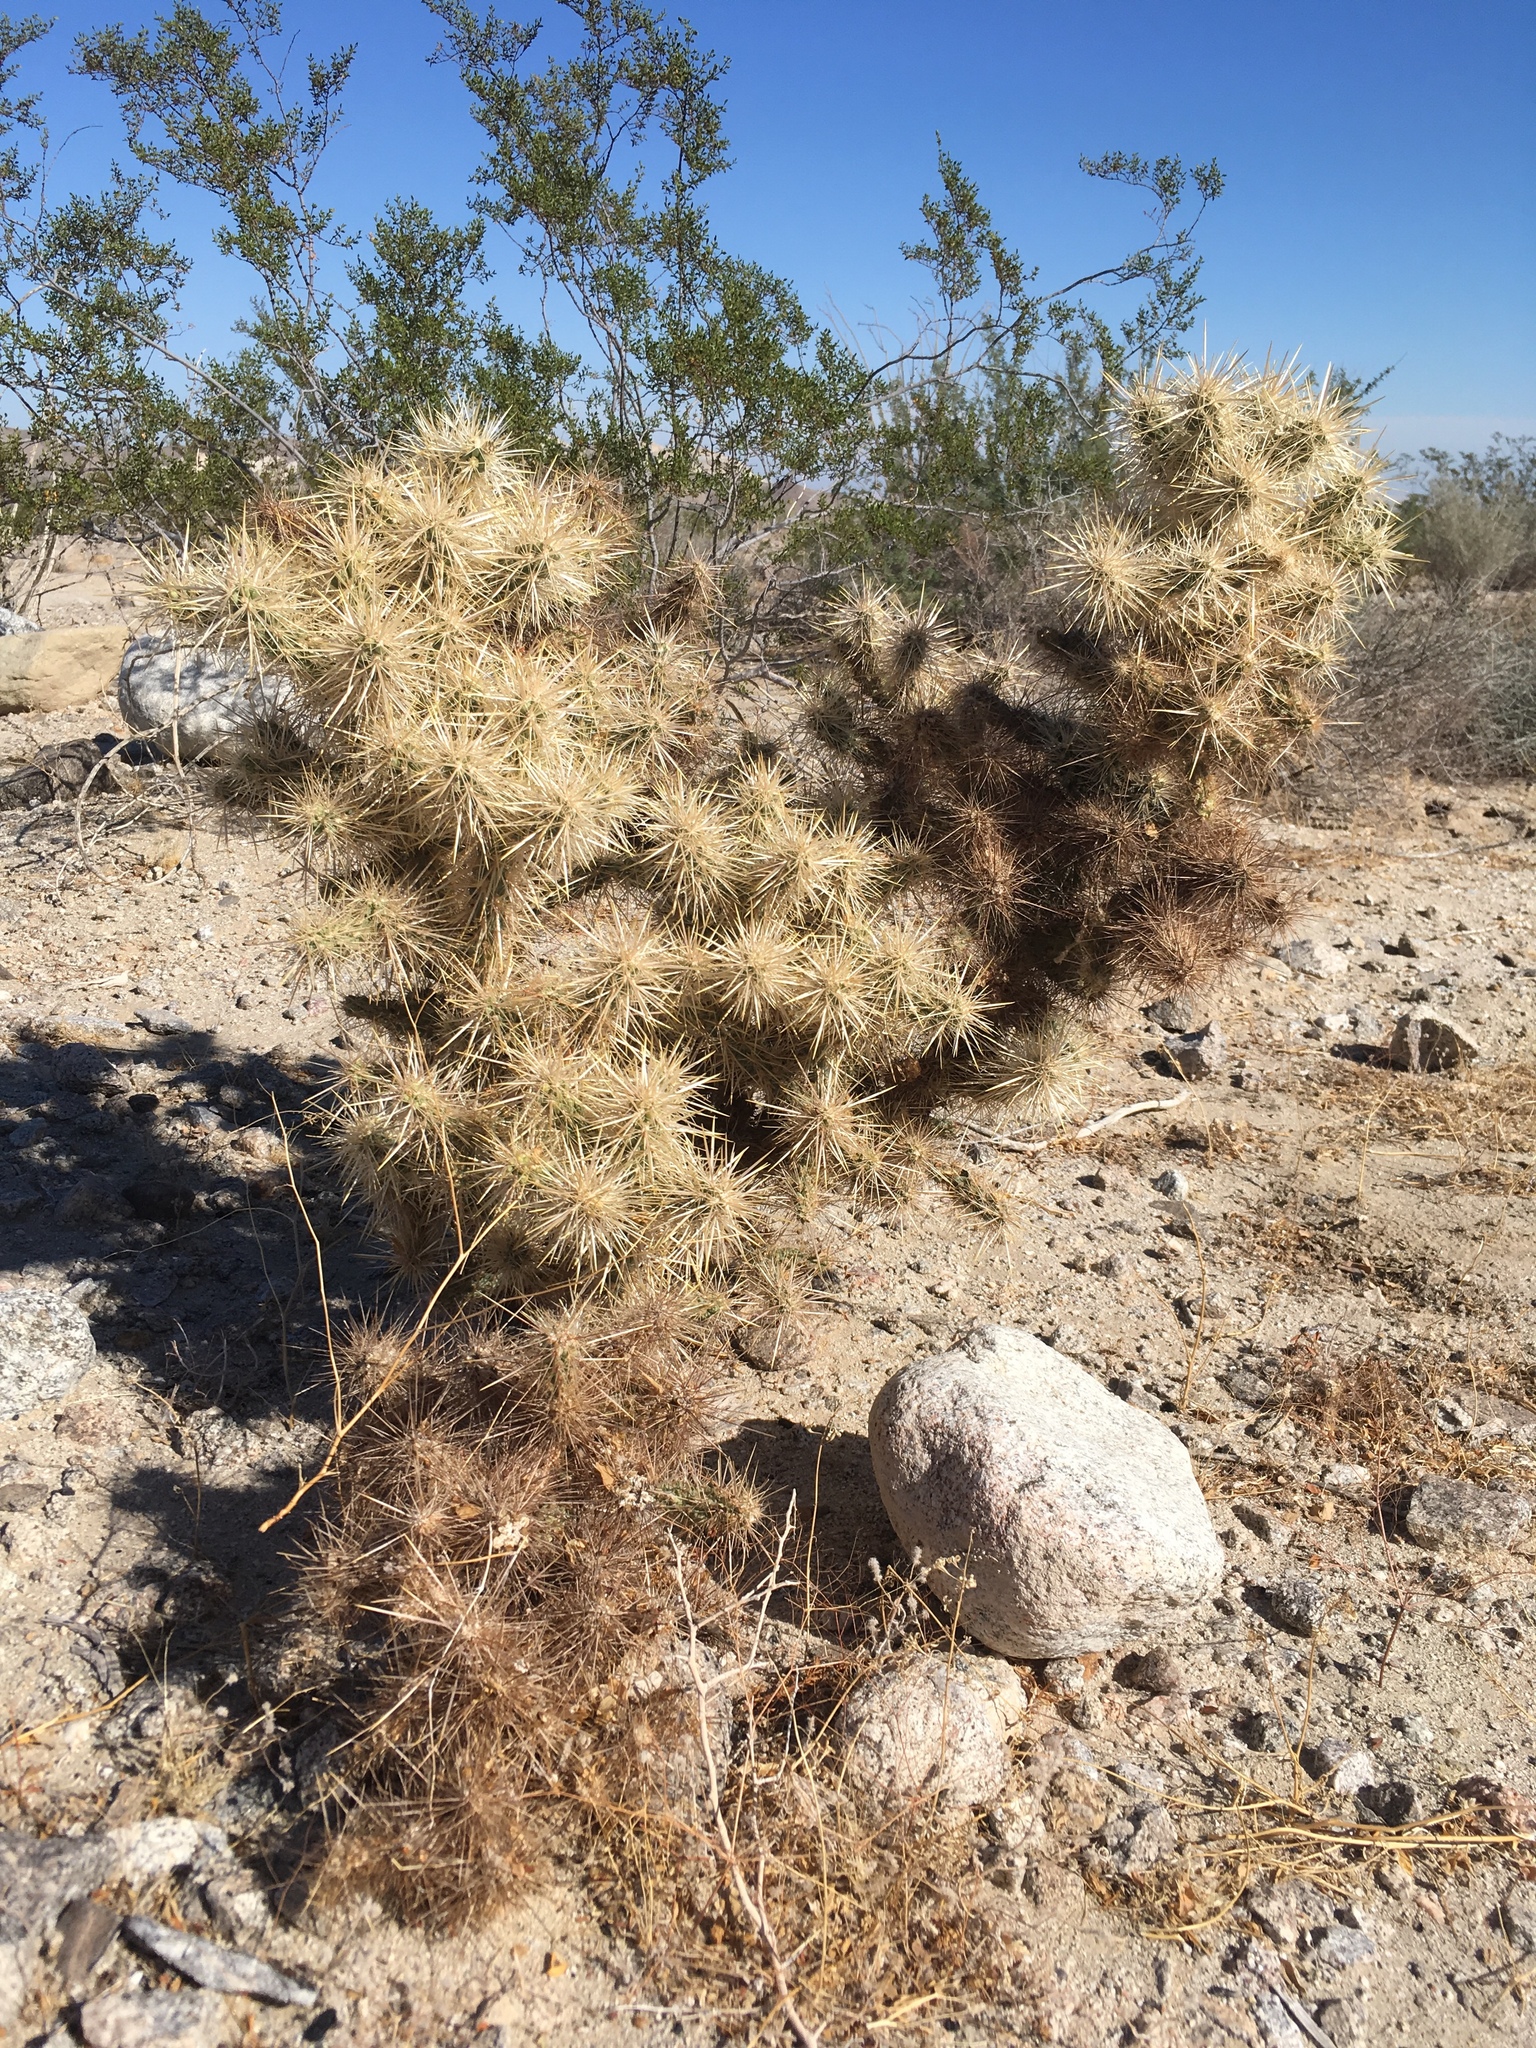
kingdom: Plantae
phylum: Tracheophyta
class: Magnoliopsida
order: Caryophyllales
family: Cactaceae
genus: Cylindropuntia
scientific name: Cylindropuntia echinocarpa
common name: Ground cholla
